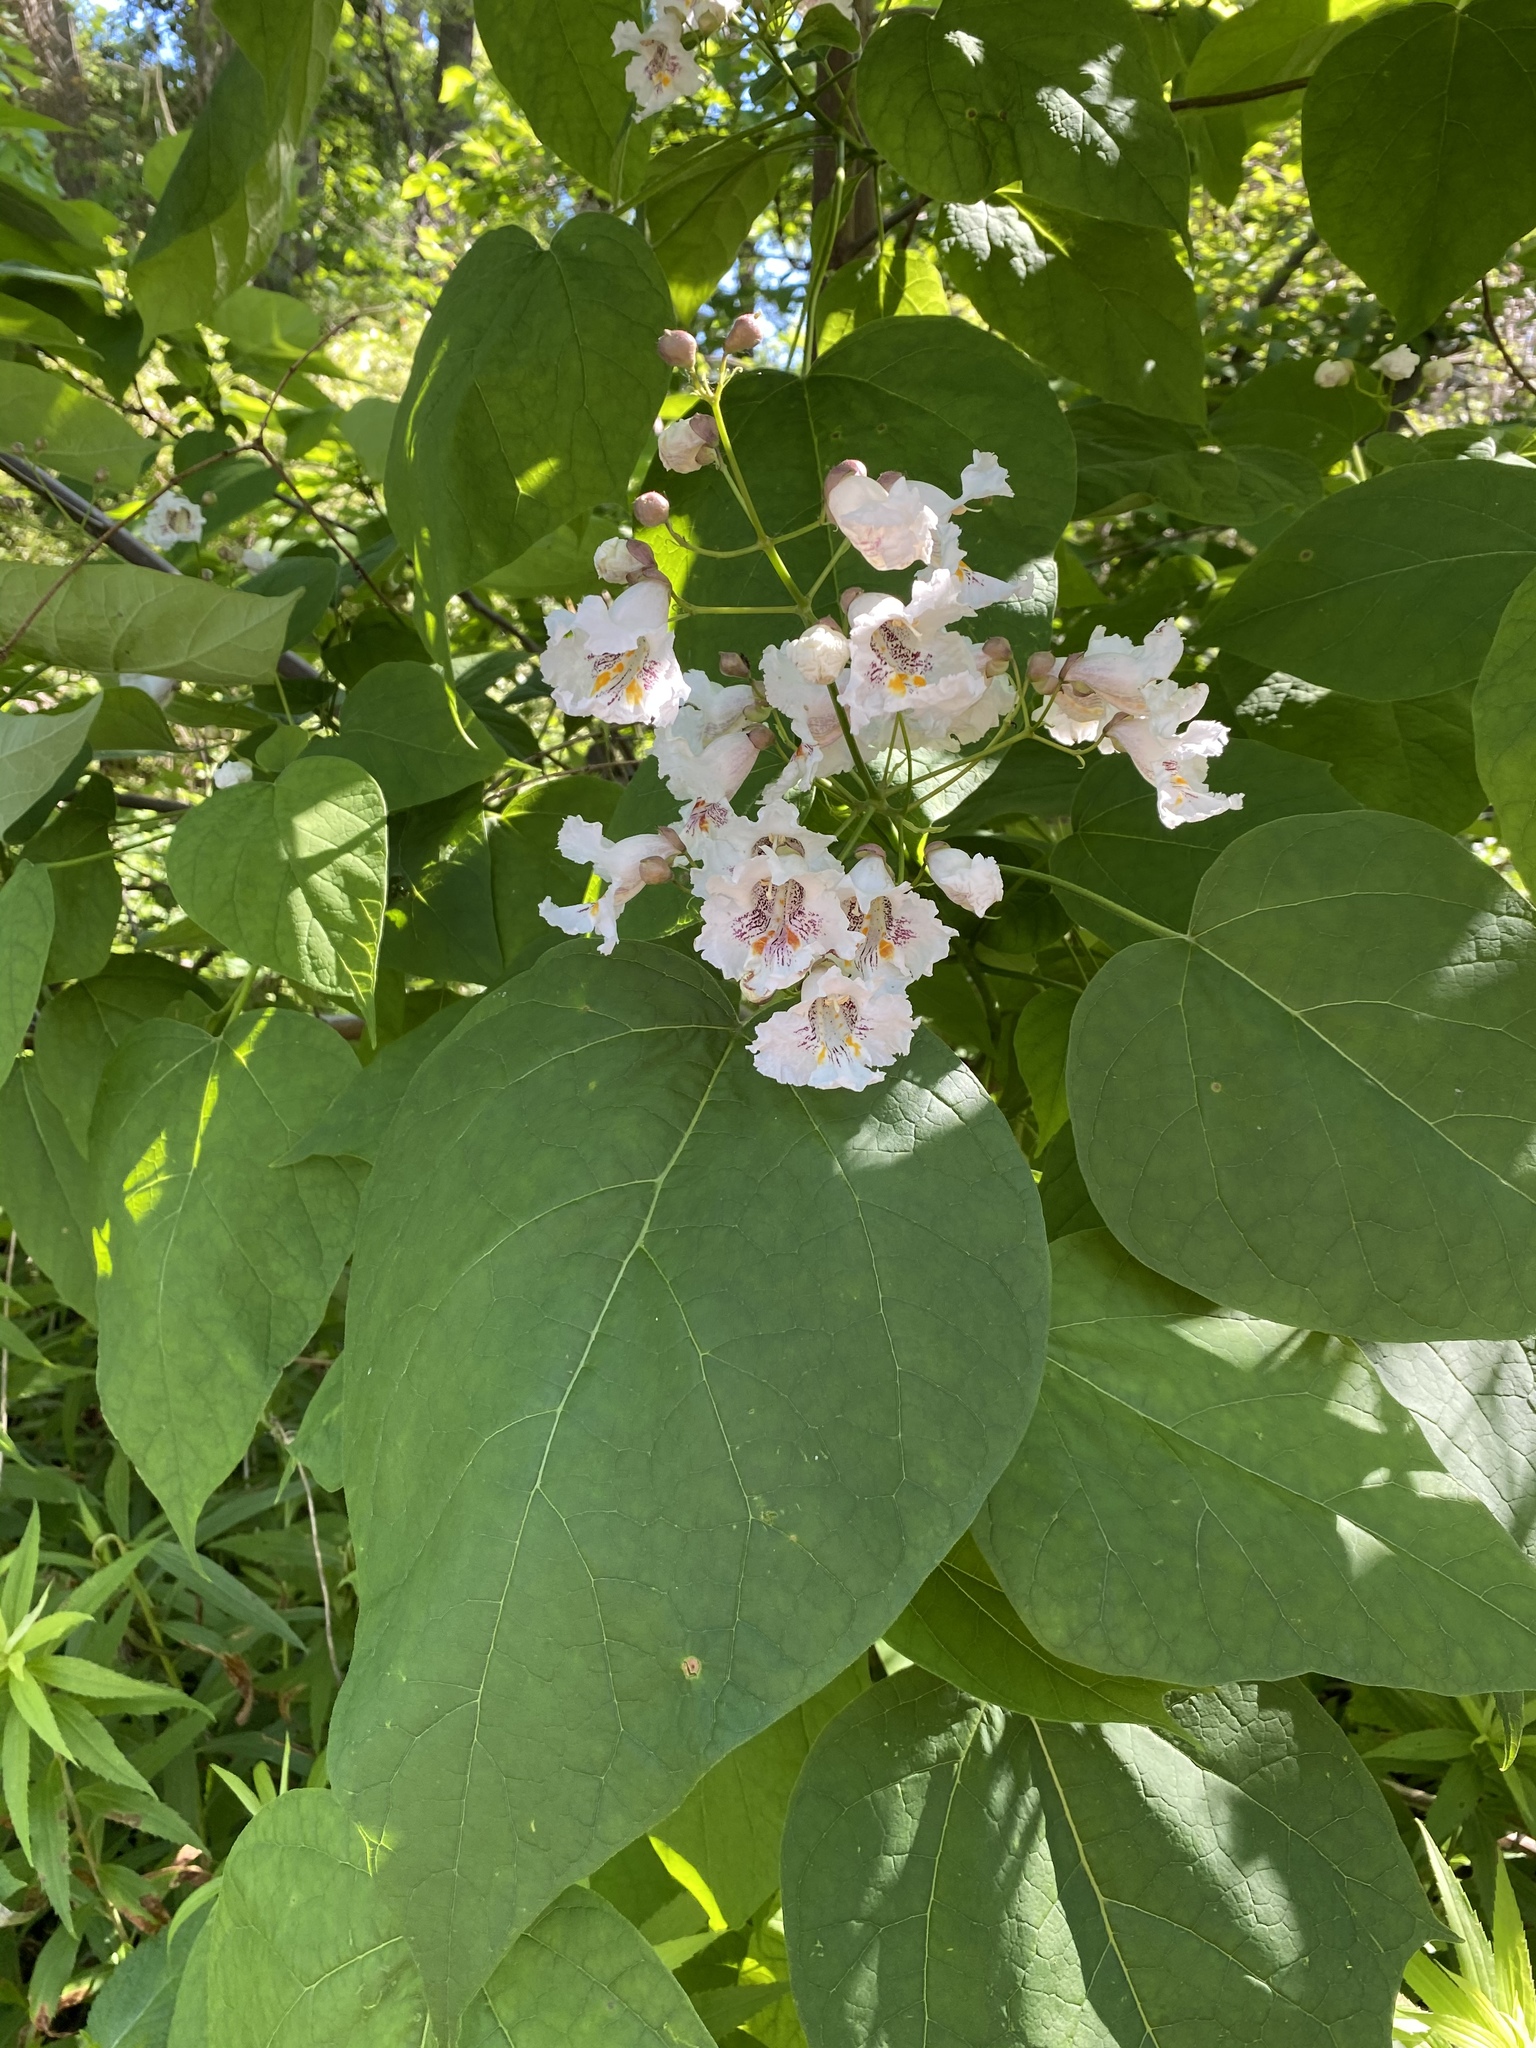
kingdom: Plantae
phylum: Tracheophyta
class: Magnoliopsida
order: Lamiales
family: Bignoniaceae
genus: Catalpa
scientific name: Catalpa speciosa
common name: Northern catalpa
